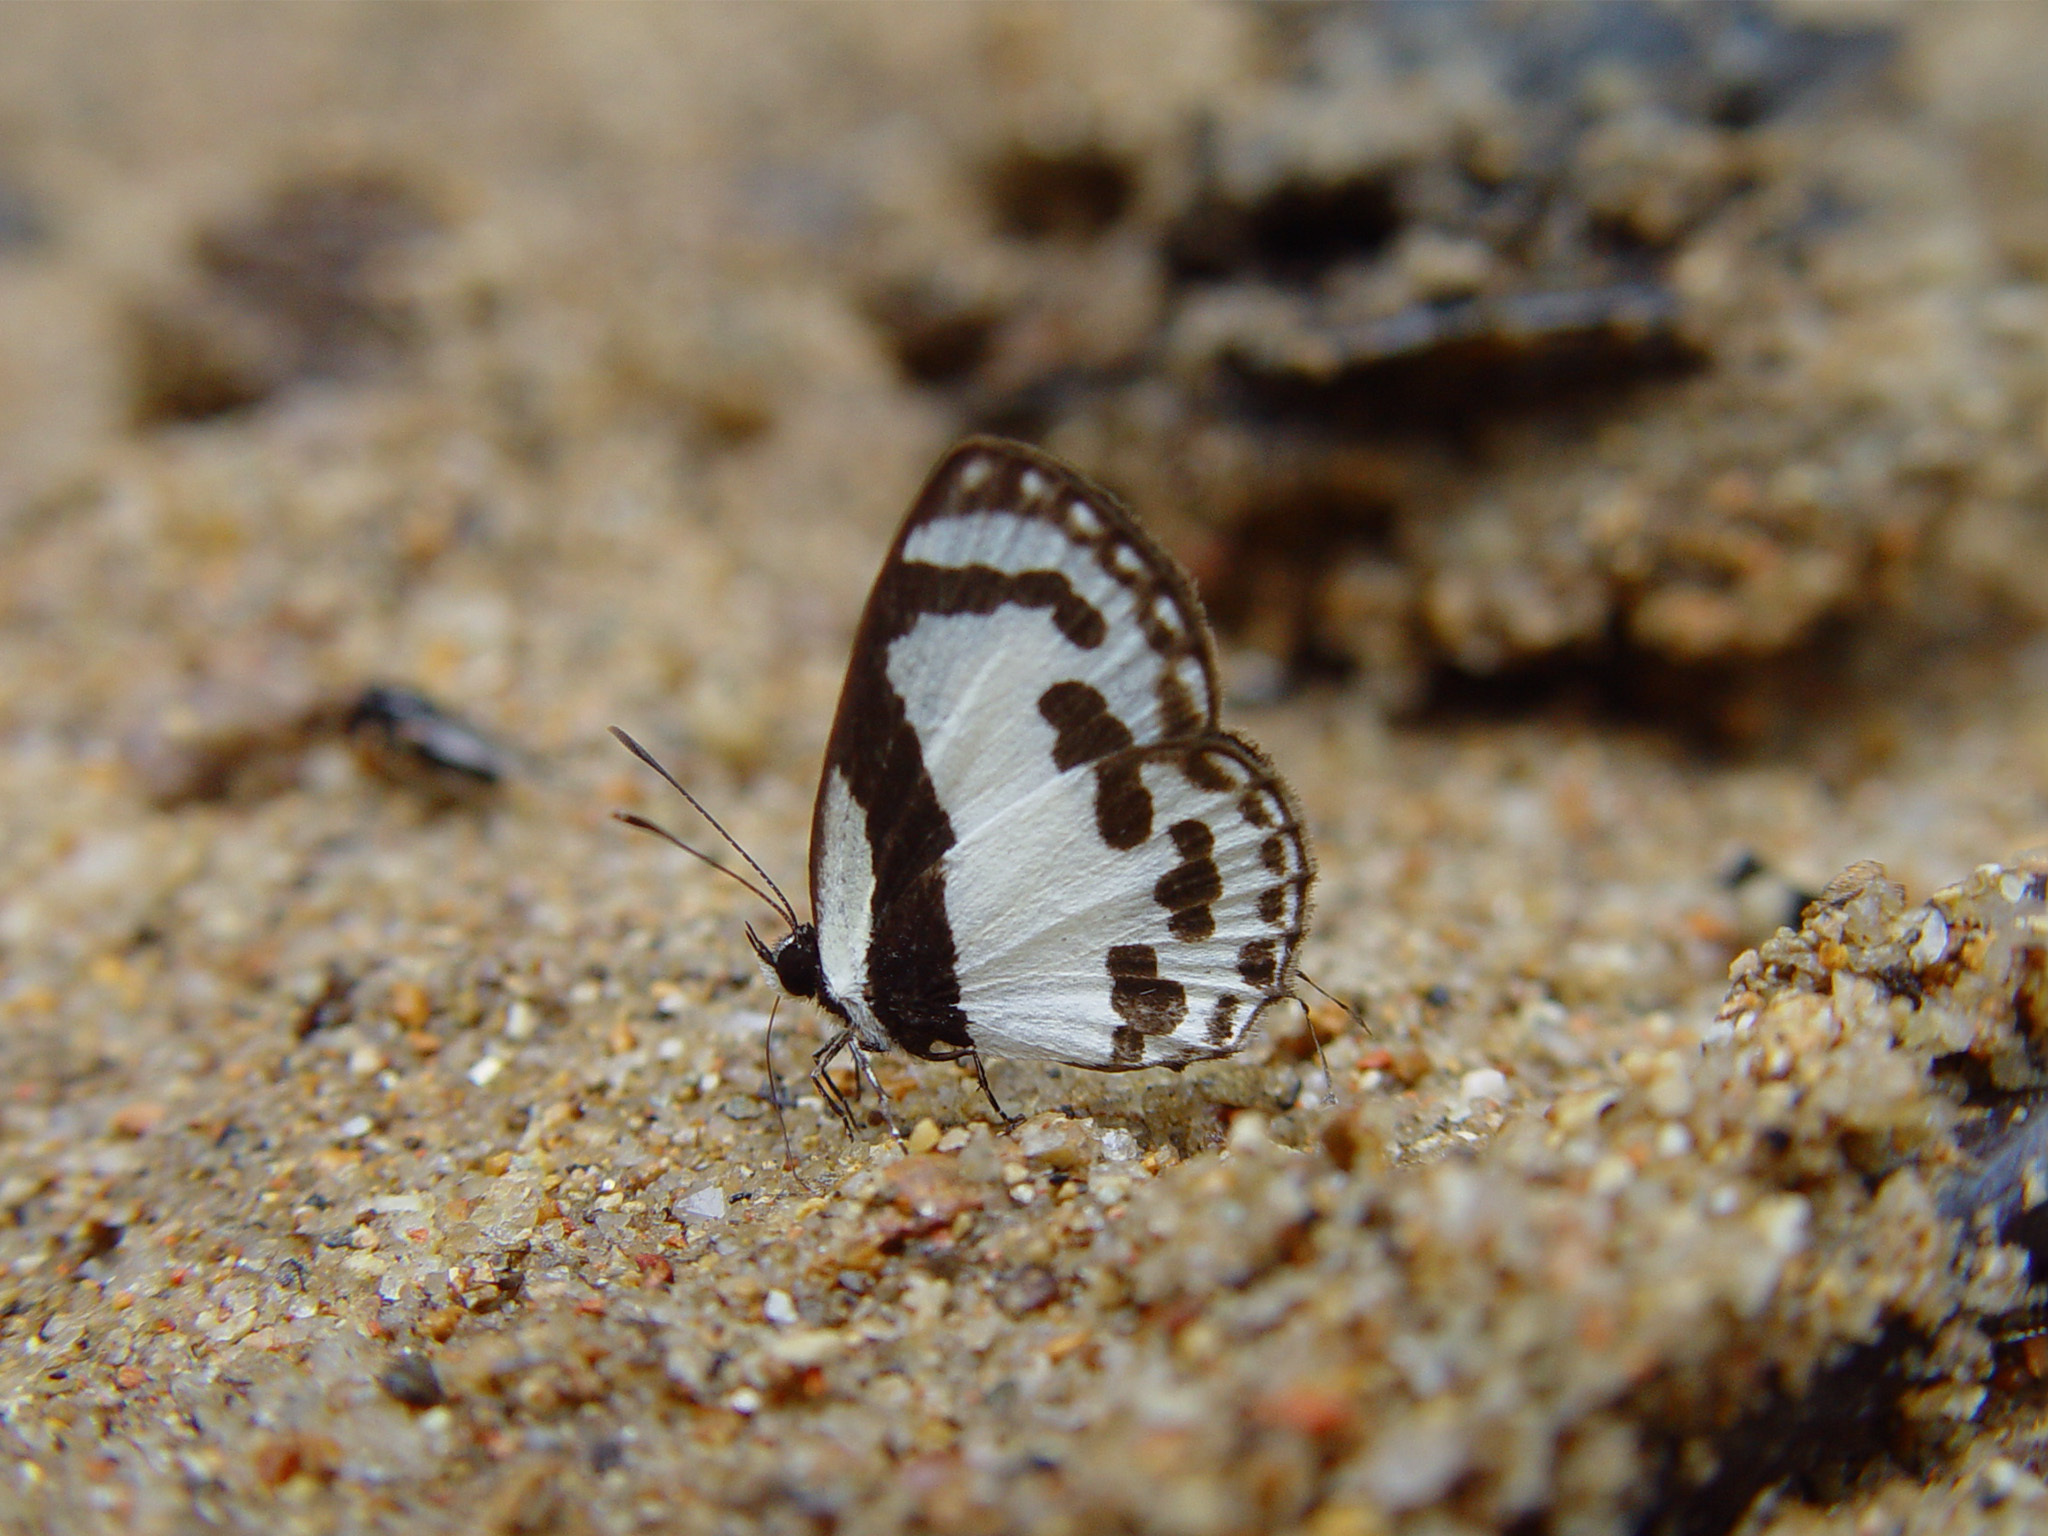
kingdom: Animalia
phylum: Arthropoda
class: Insecta
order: Lepidoptera
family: Lycaenidae
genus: Caleta
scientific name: Caleta roxus
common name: Straight pierrot
